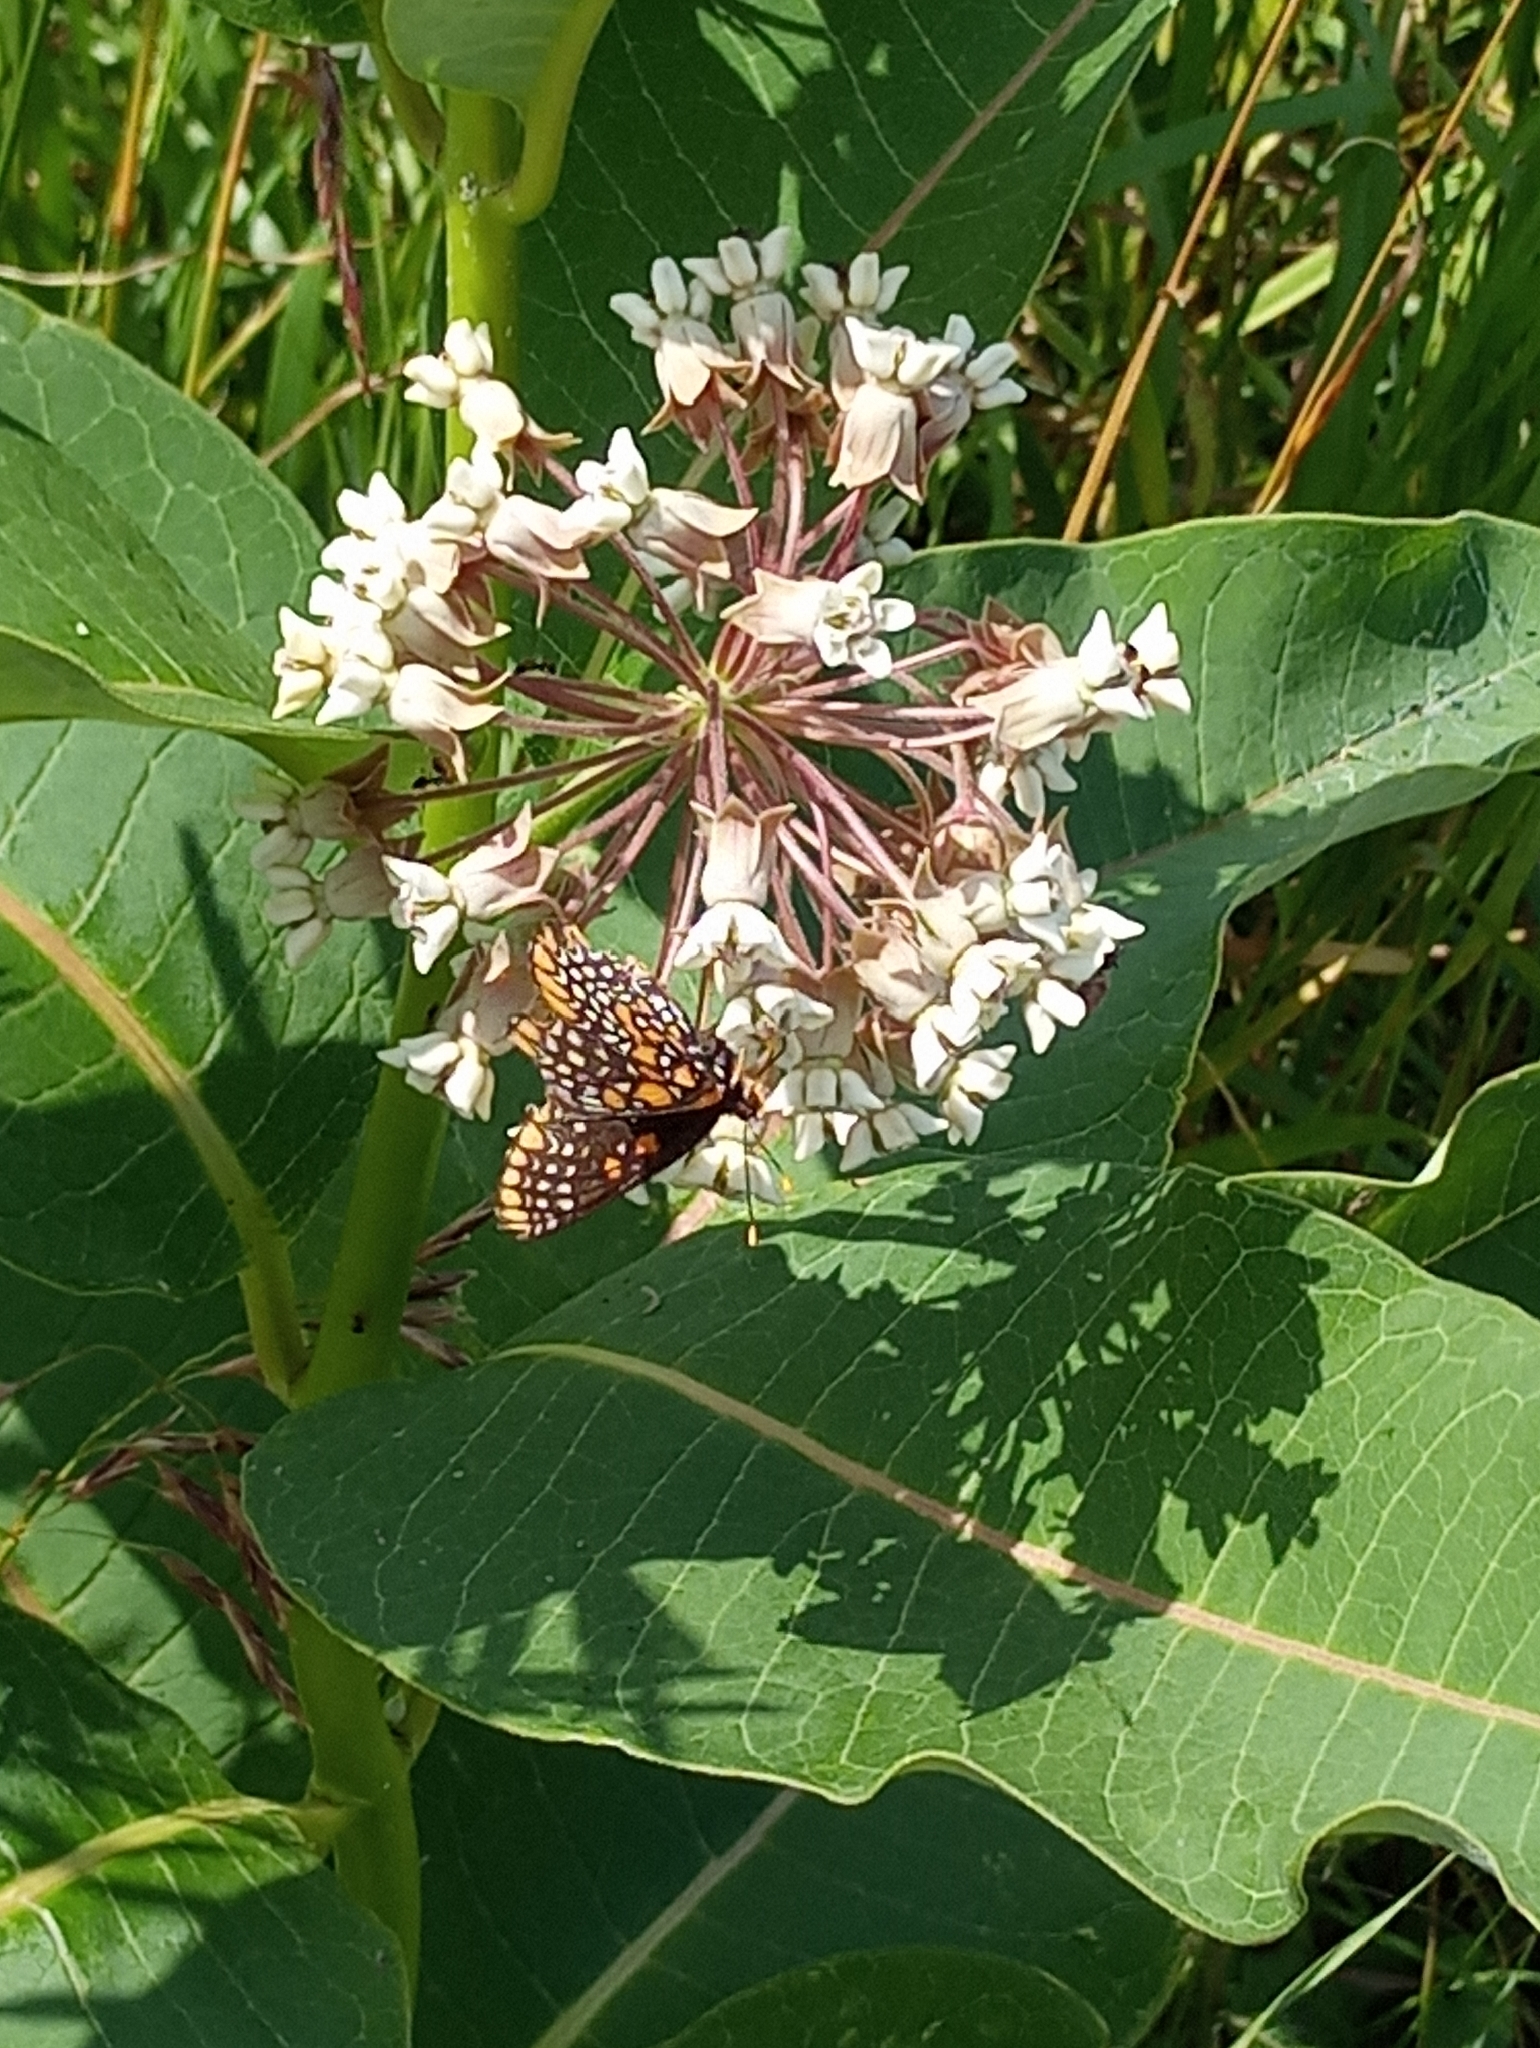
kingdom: Plantae
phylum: Tracheophyta
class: Magnoliopsida
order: Gentianales
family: Apocynaceae
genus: Asclepias
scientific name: Asclepias syriaca
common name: Common milkweed
